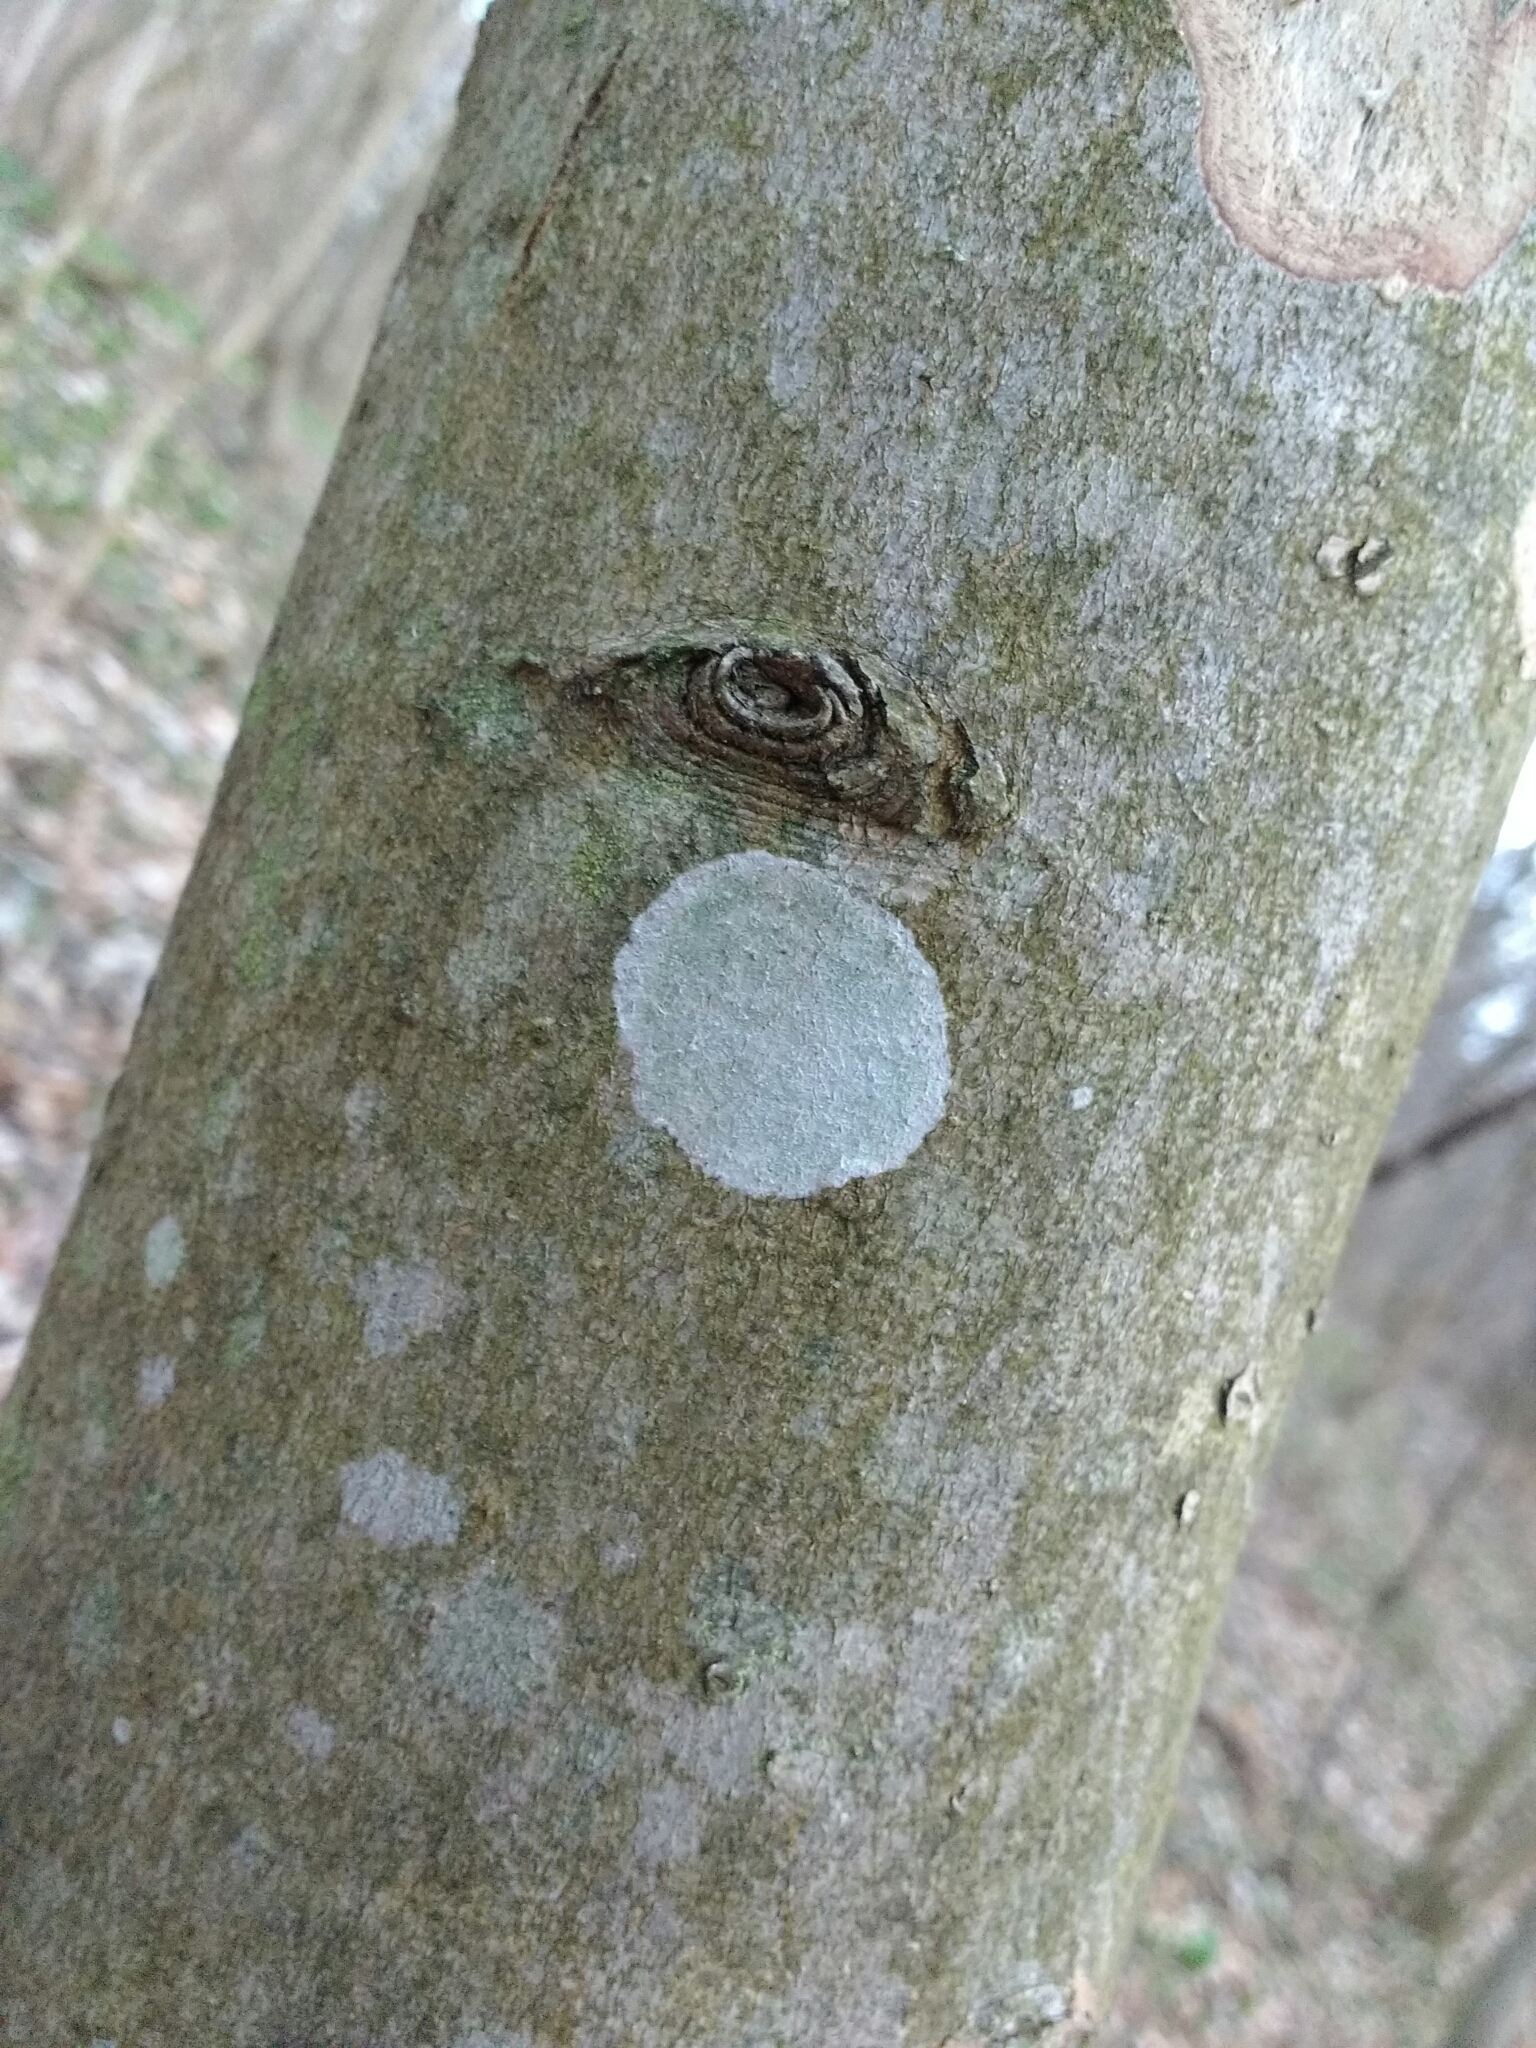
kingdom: Fungi
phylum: Ascomycota
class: Lecanoromycetes
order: Ostropales
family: Phlyctidaceae
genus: Phlyctis
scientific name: Phlyctis argena
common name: Whitewash lichen
